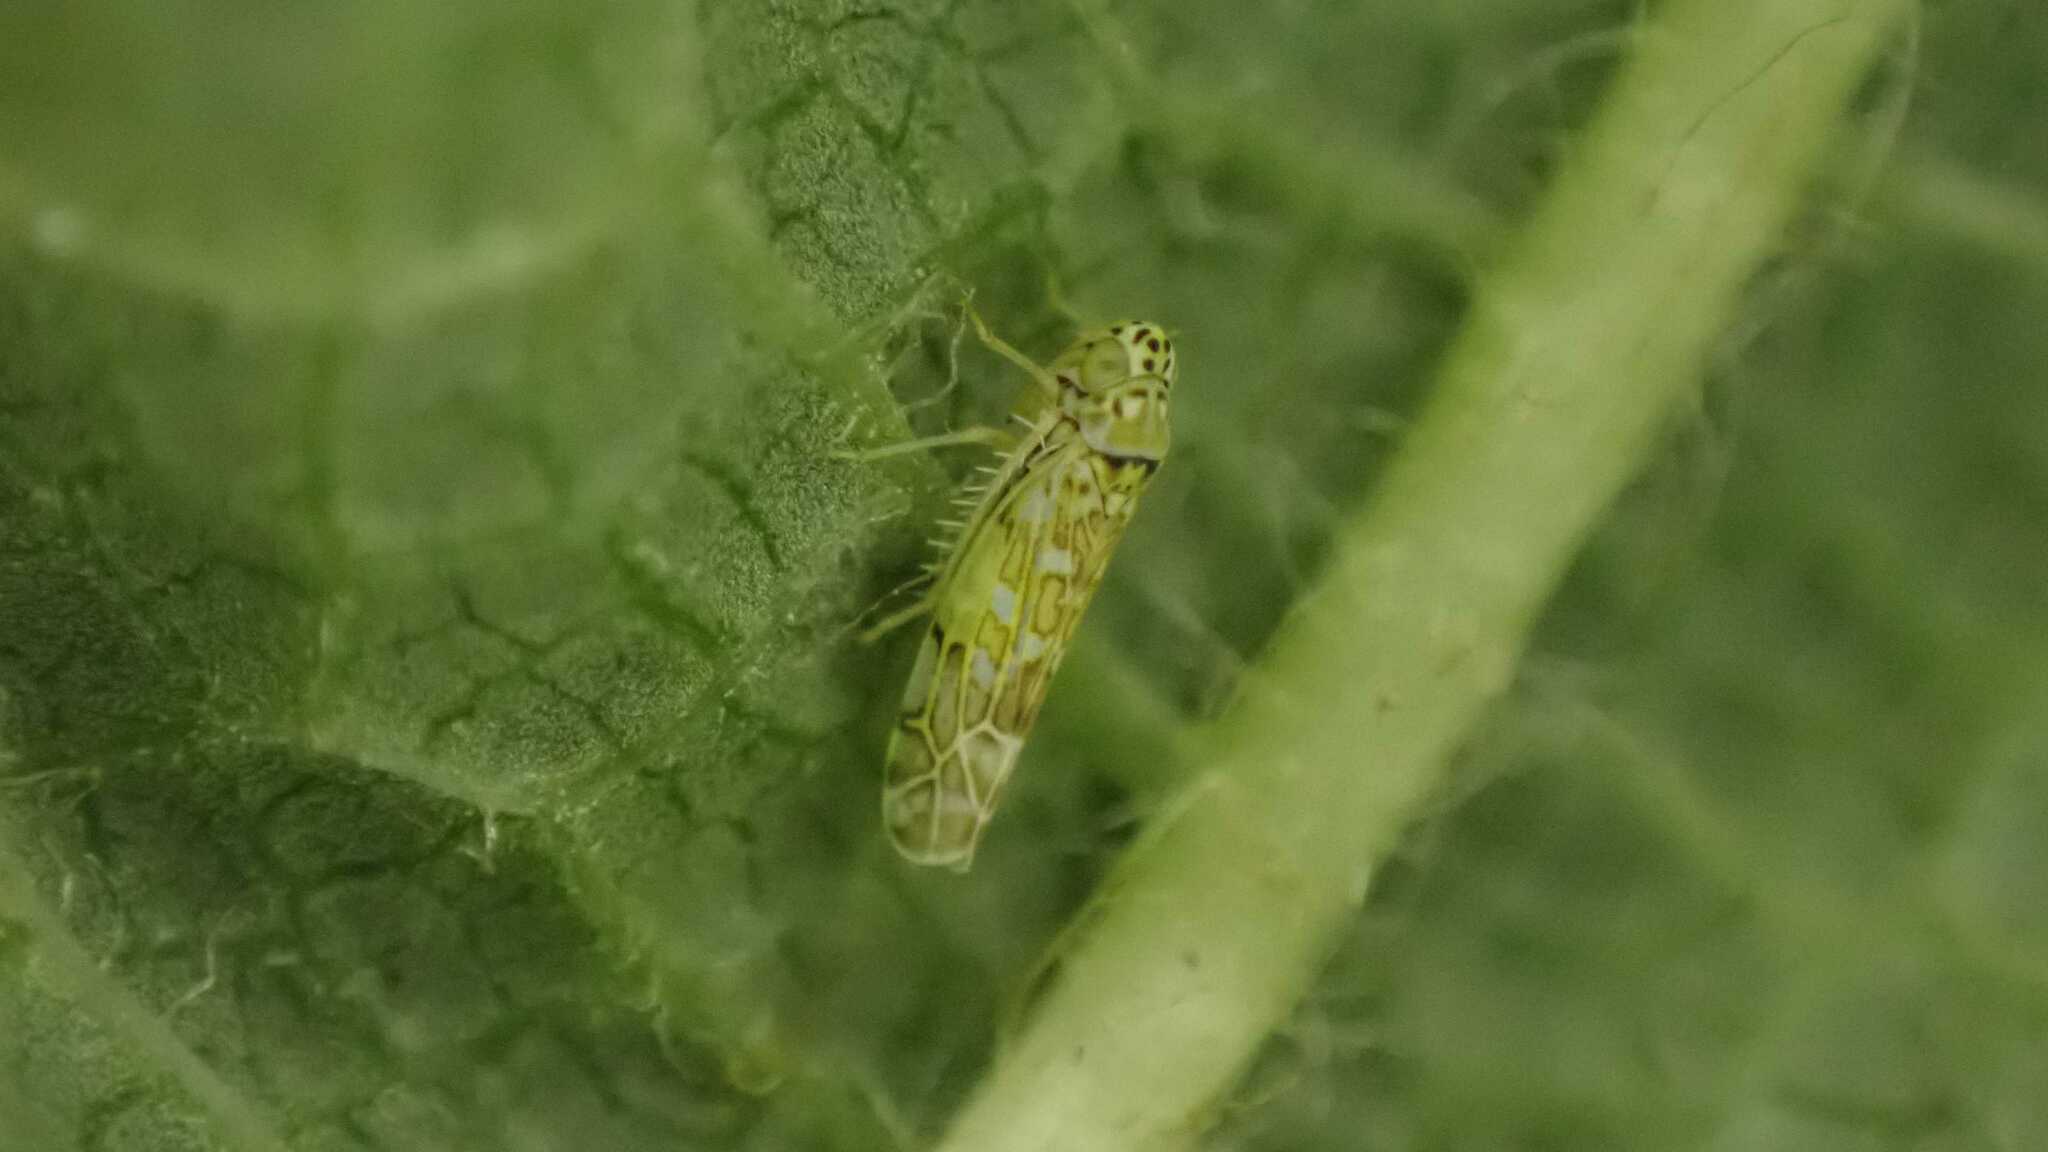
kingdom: Animalia
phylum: Arthropoda
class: Insecta
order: Hemiptera
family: Cicadellidae
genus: Eupteryx
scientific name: Eupteryx decemnotata
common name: Ligurian leafhopper
